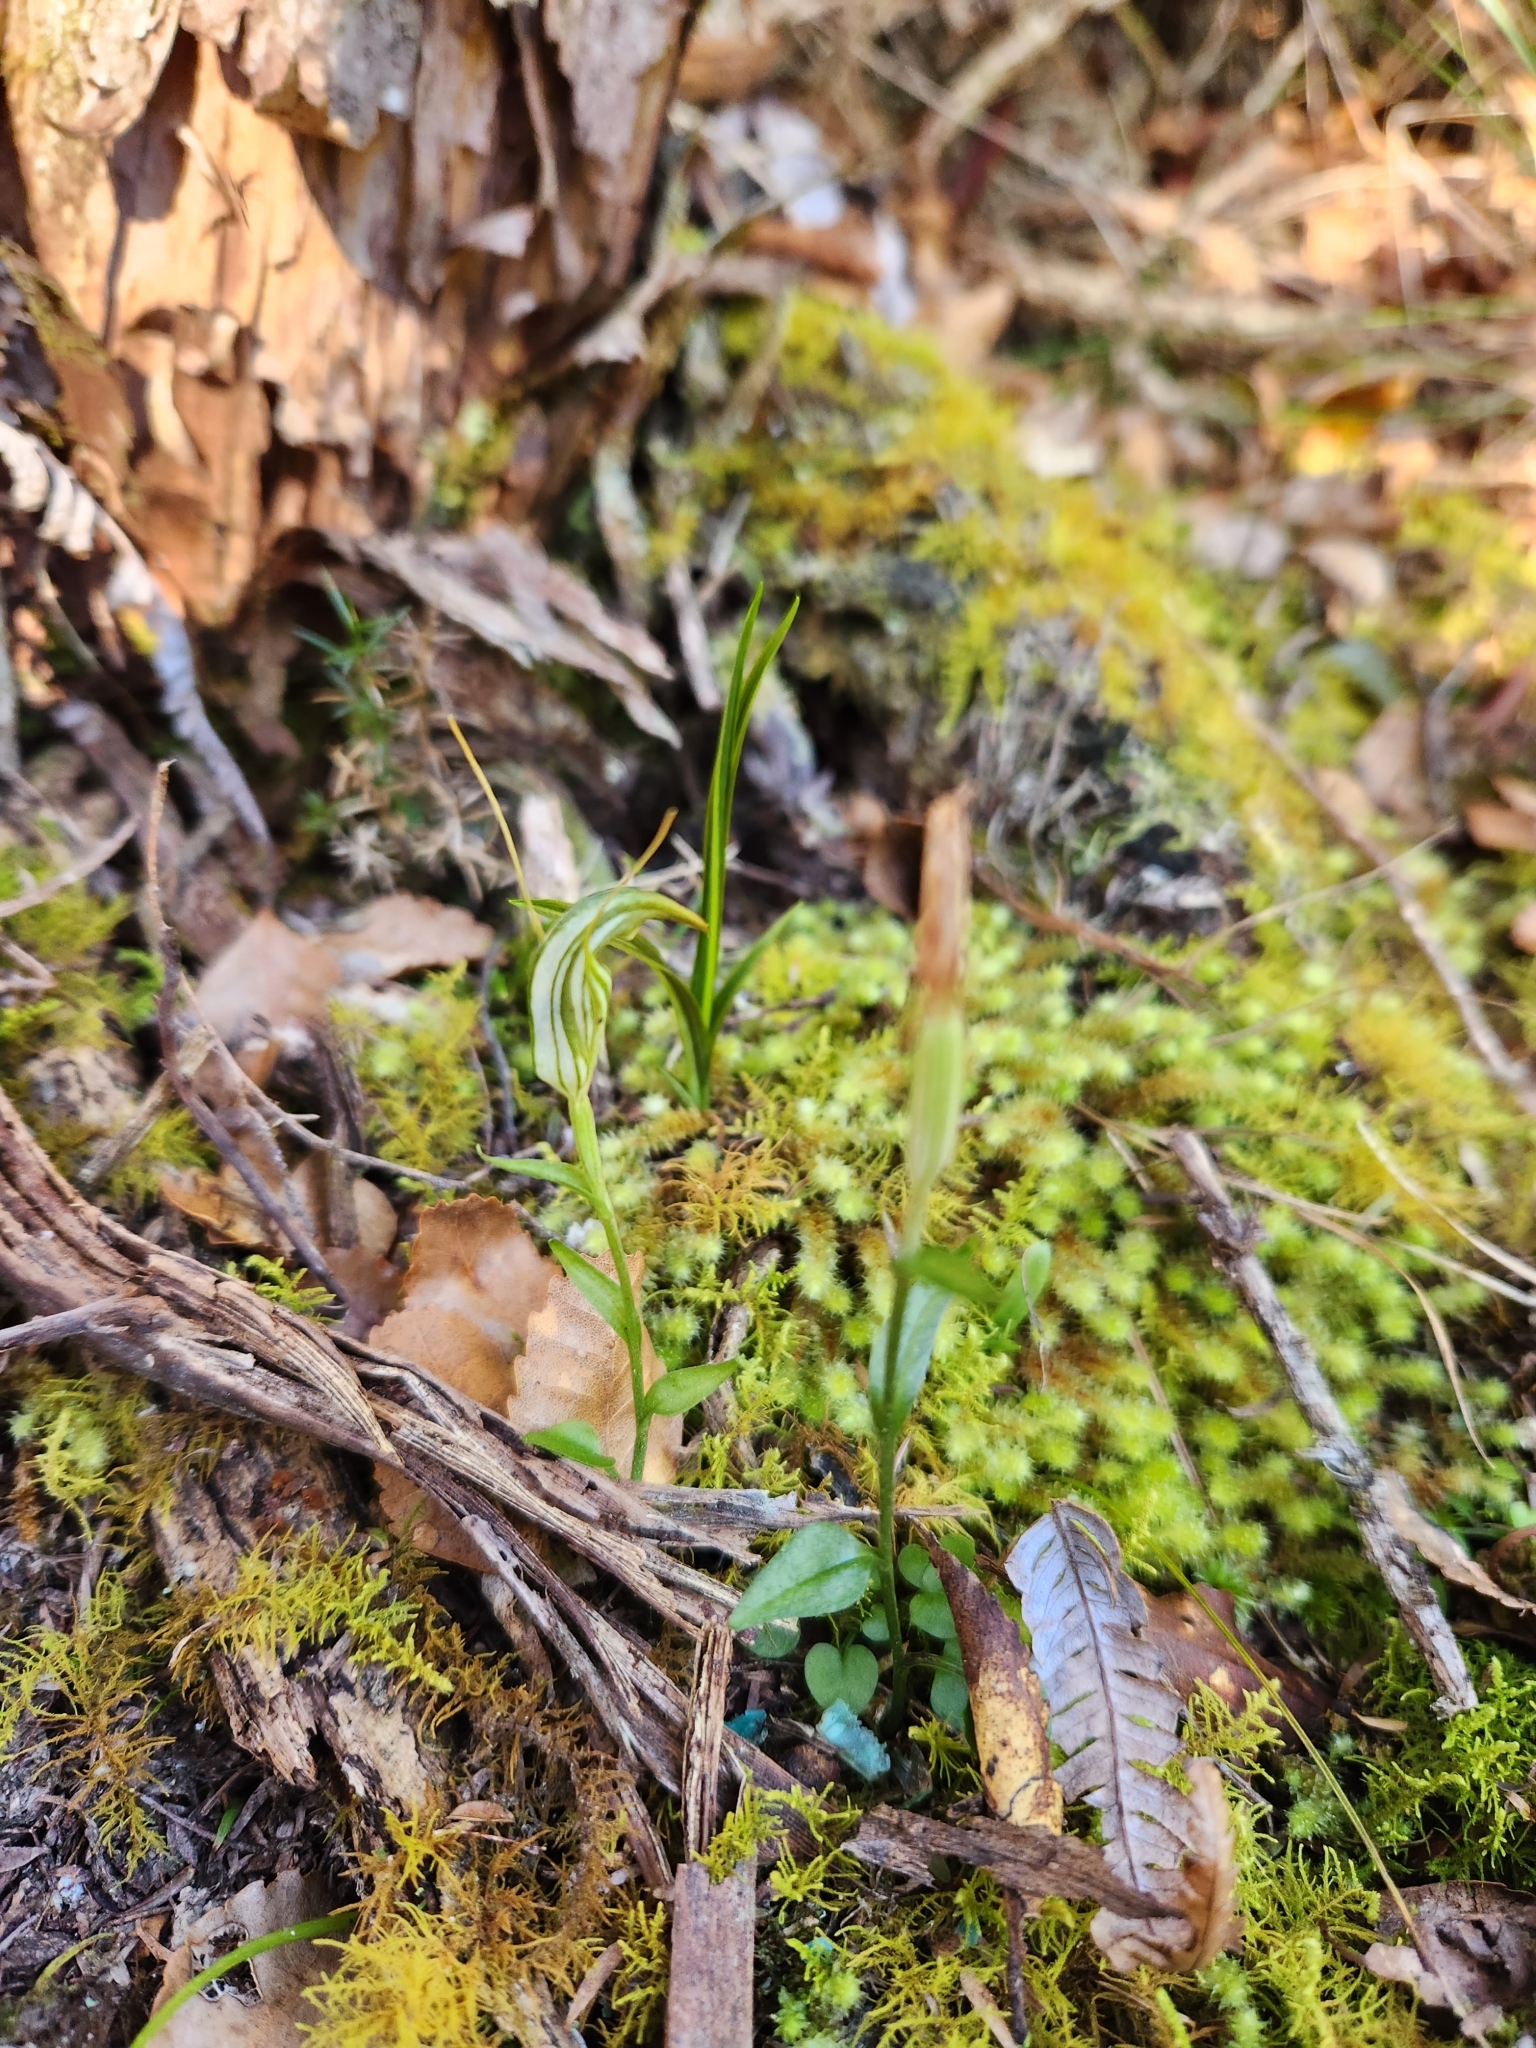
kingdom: Plantae
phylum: Tracheophyta
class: Liliopsida
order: Asparagales
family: Orchidaceae
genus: Pterostylis
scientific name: Pterostylis alobula
